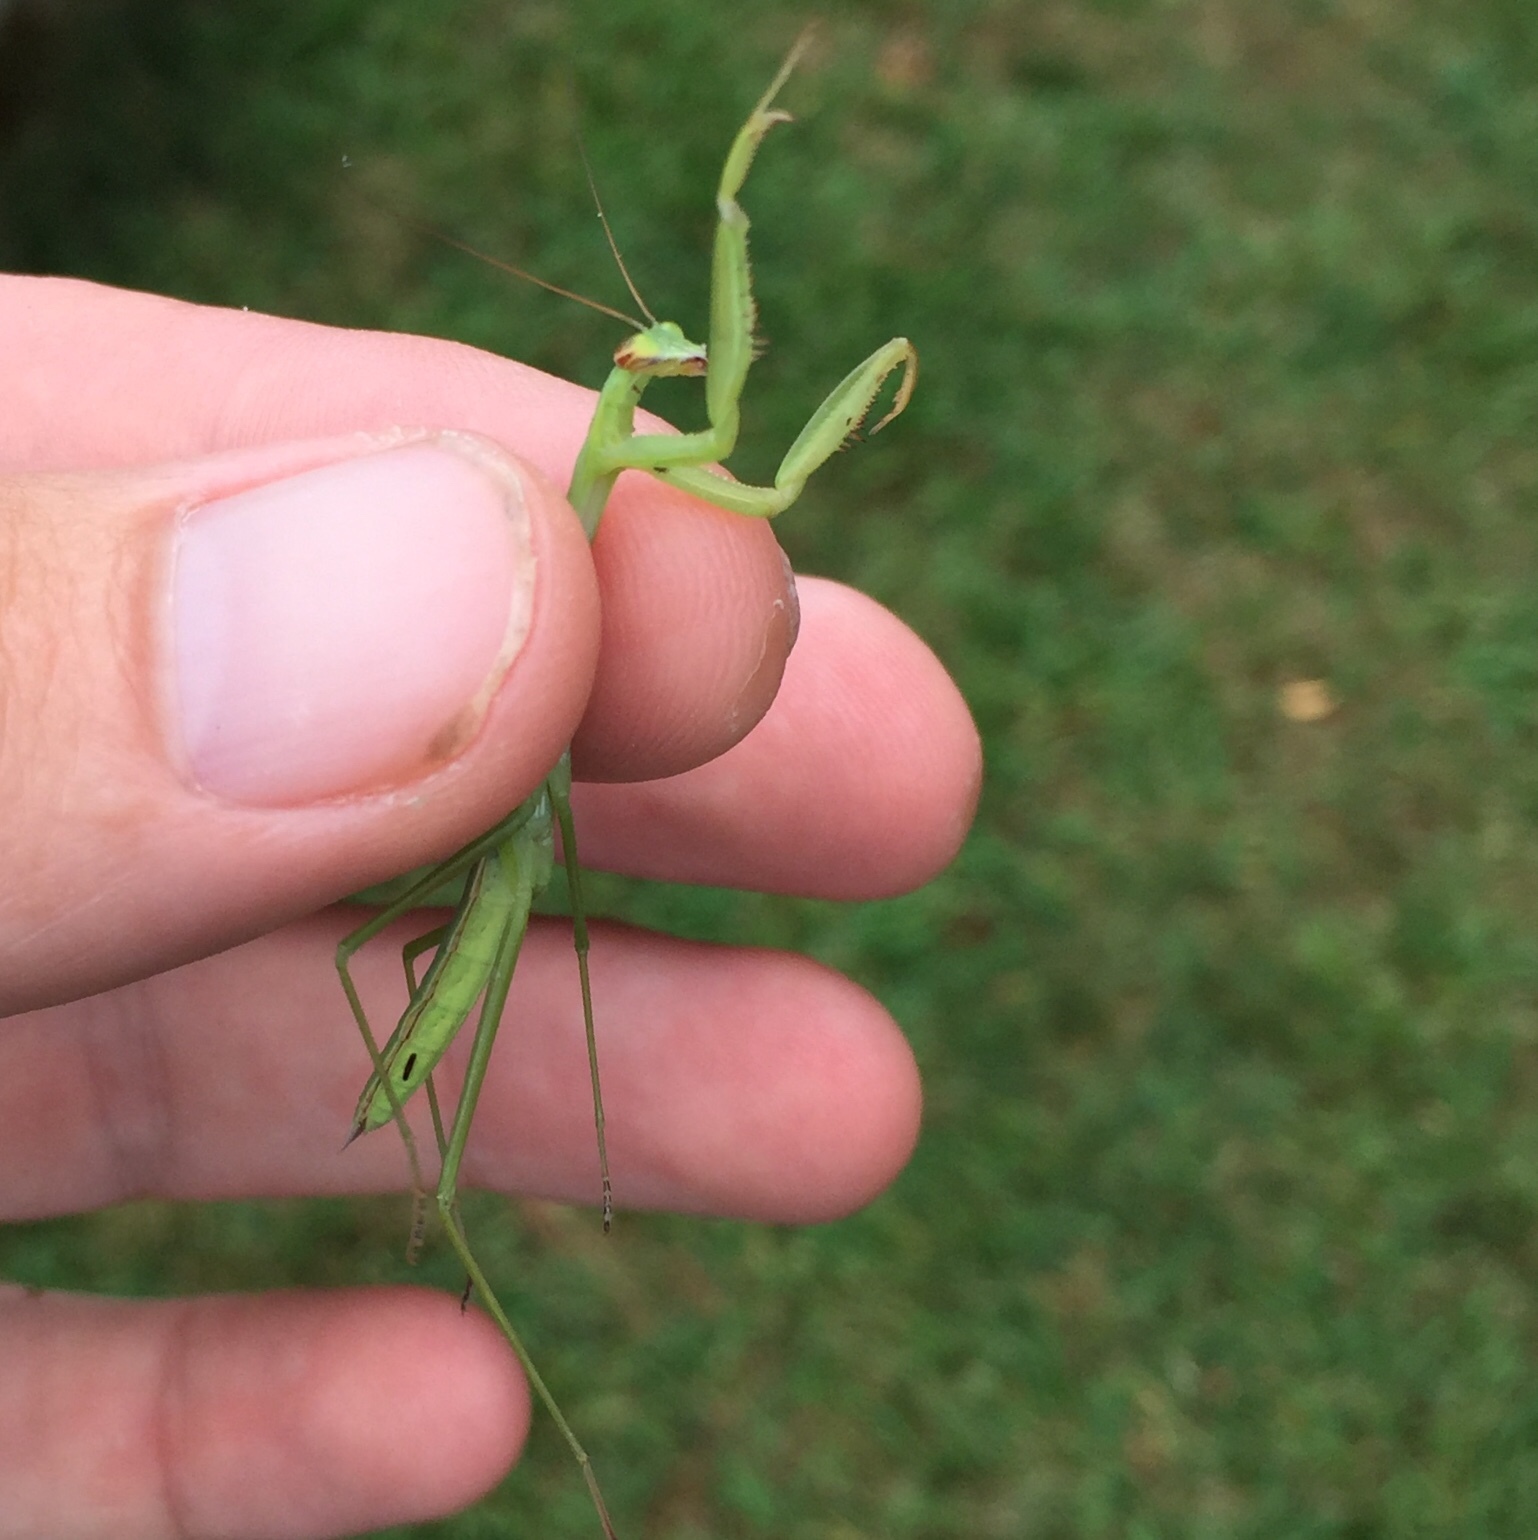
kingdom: Animalia
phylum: Arthropoda
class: Insecta
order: Mantodea
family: Mantidae
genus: Tenodera
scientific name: Tenodera sinensis
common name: Chinese mantis
